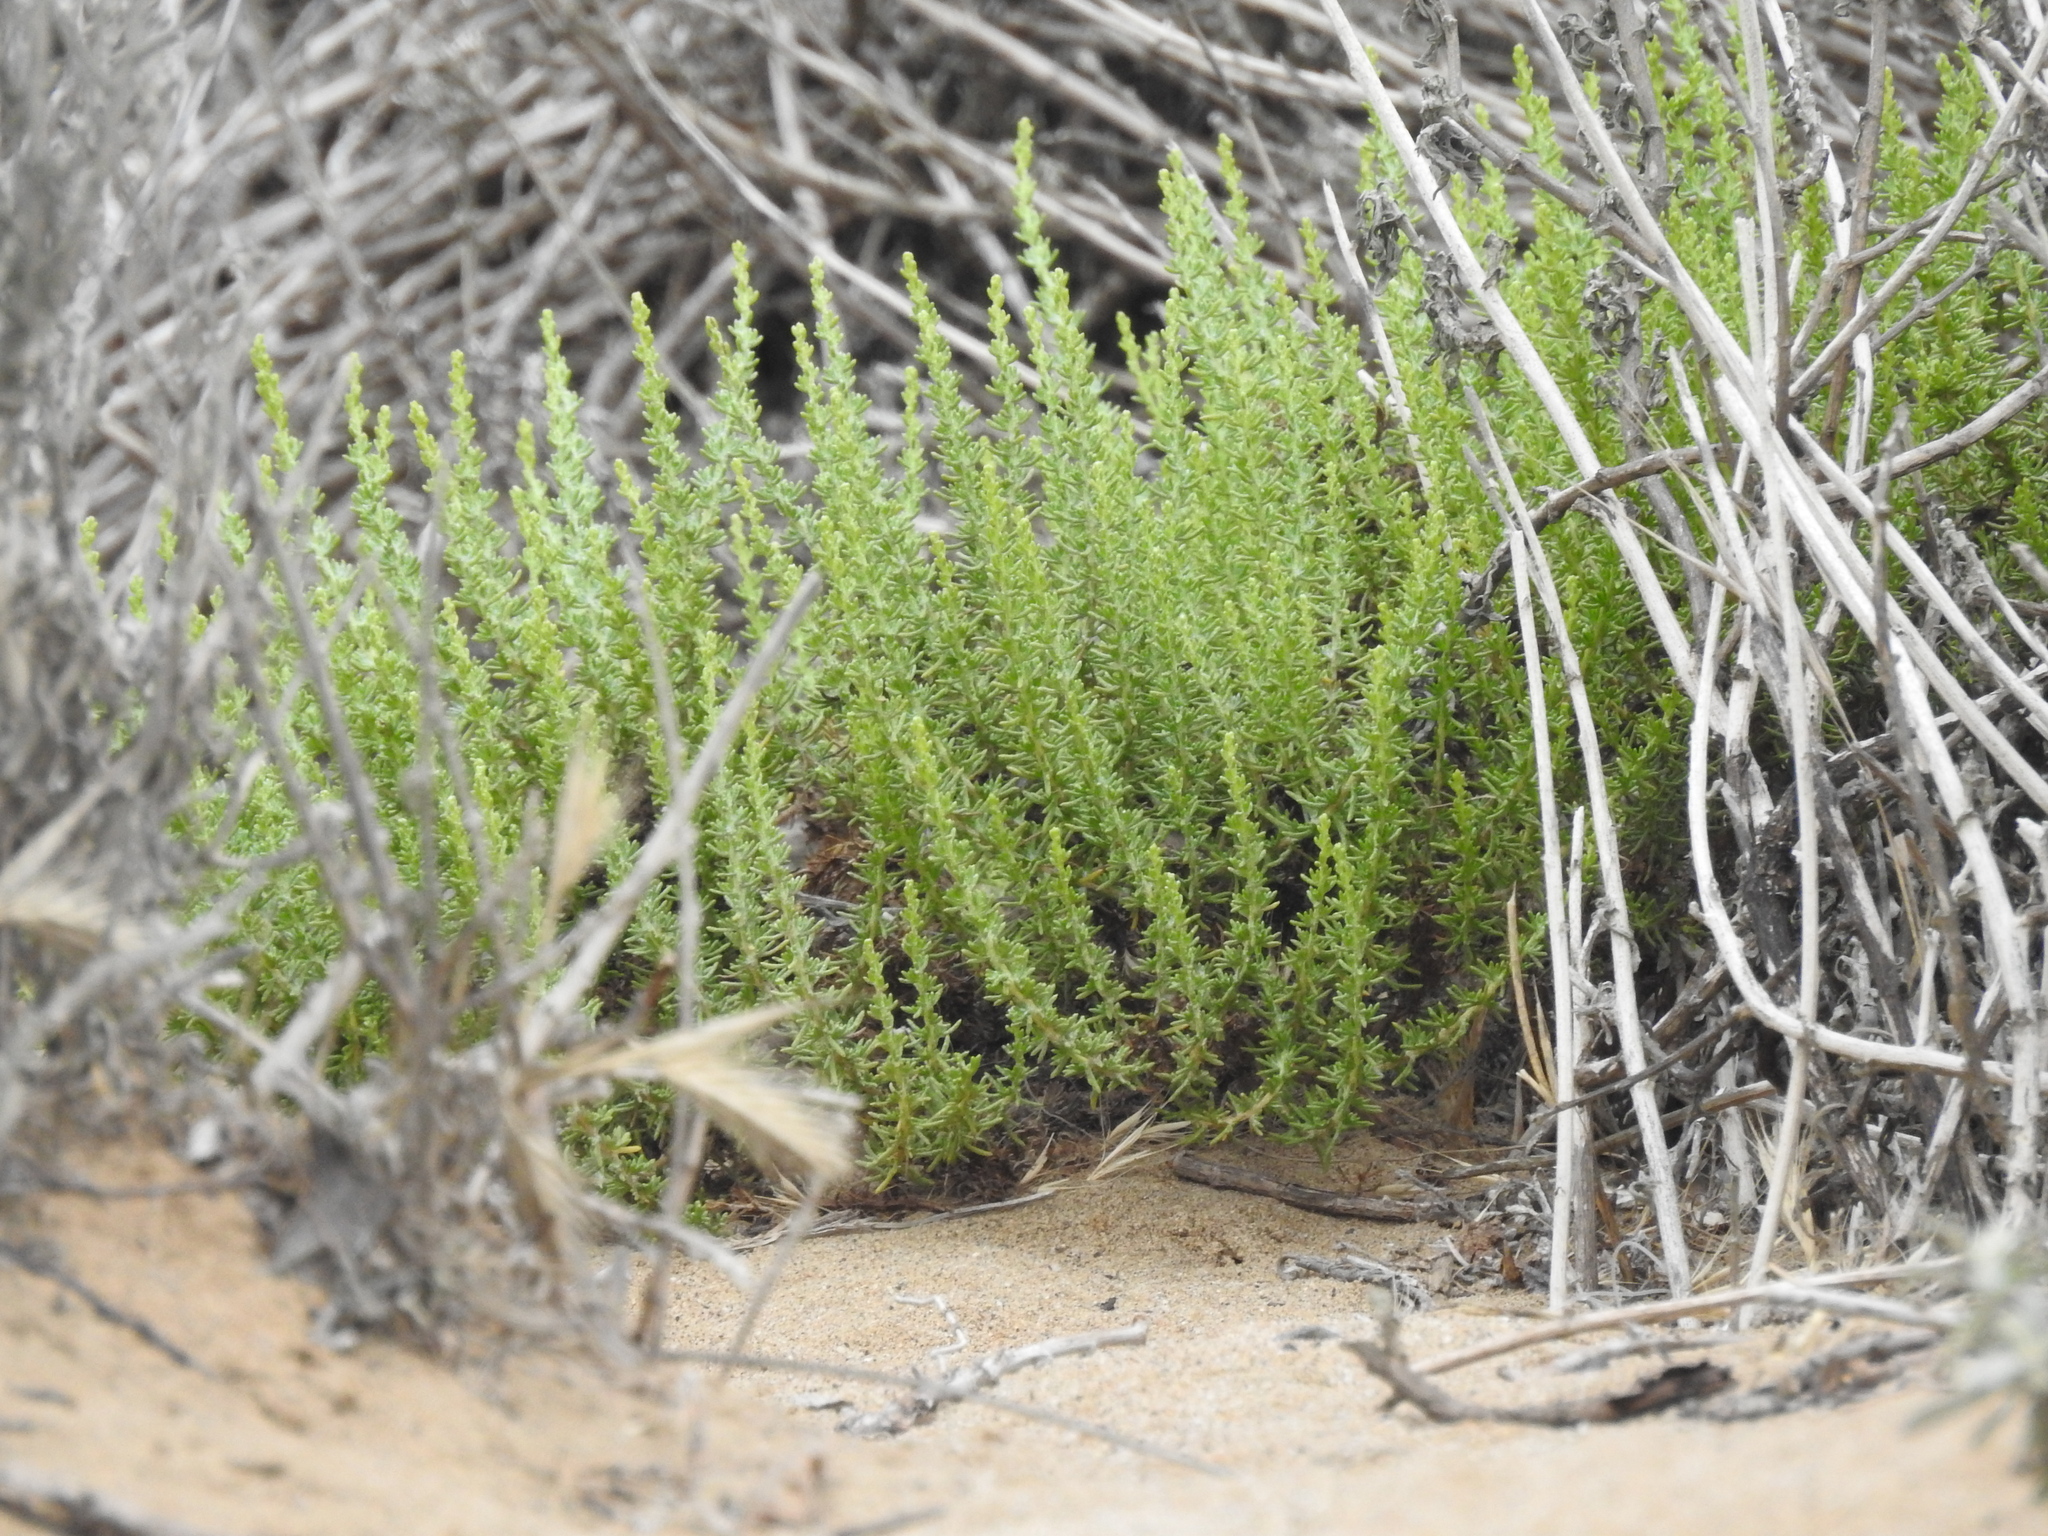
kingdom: Plantae
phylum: Tracheophyta
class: Magnoliopsida
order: Asterales
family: Asteraceae
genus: Ericameria
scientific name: Ericameria ericoides
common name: California goldenbush
